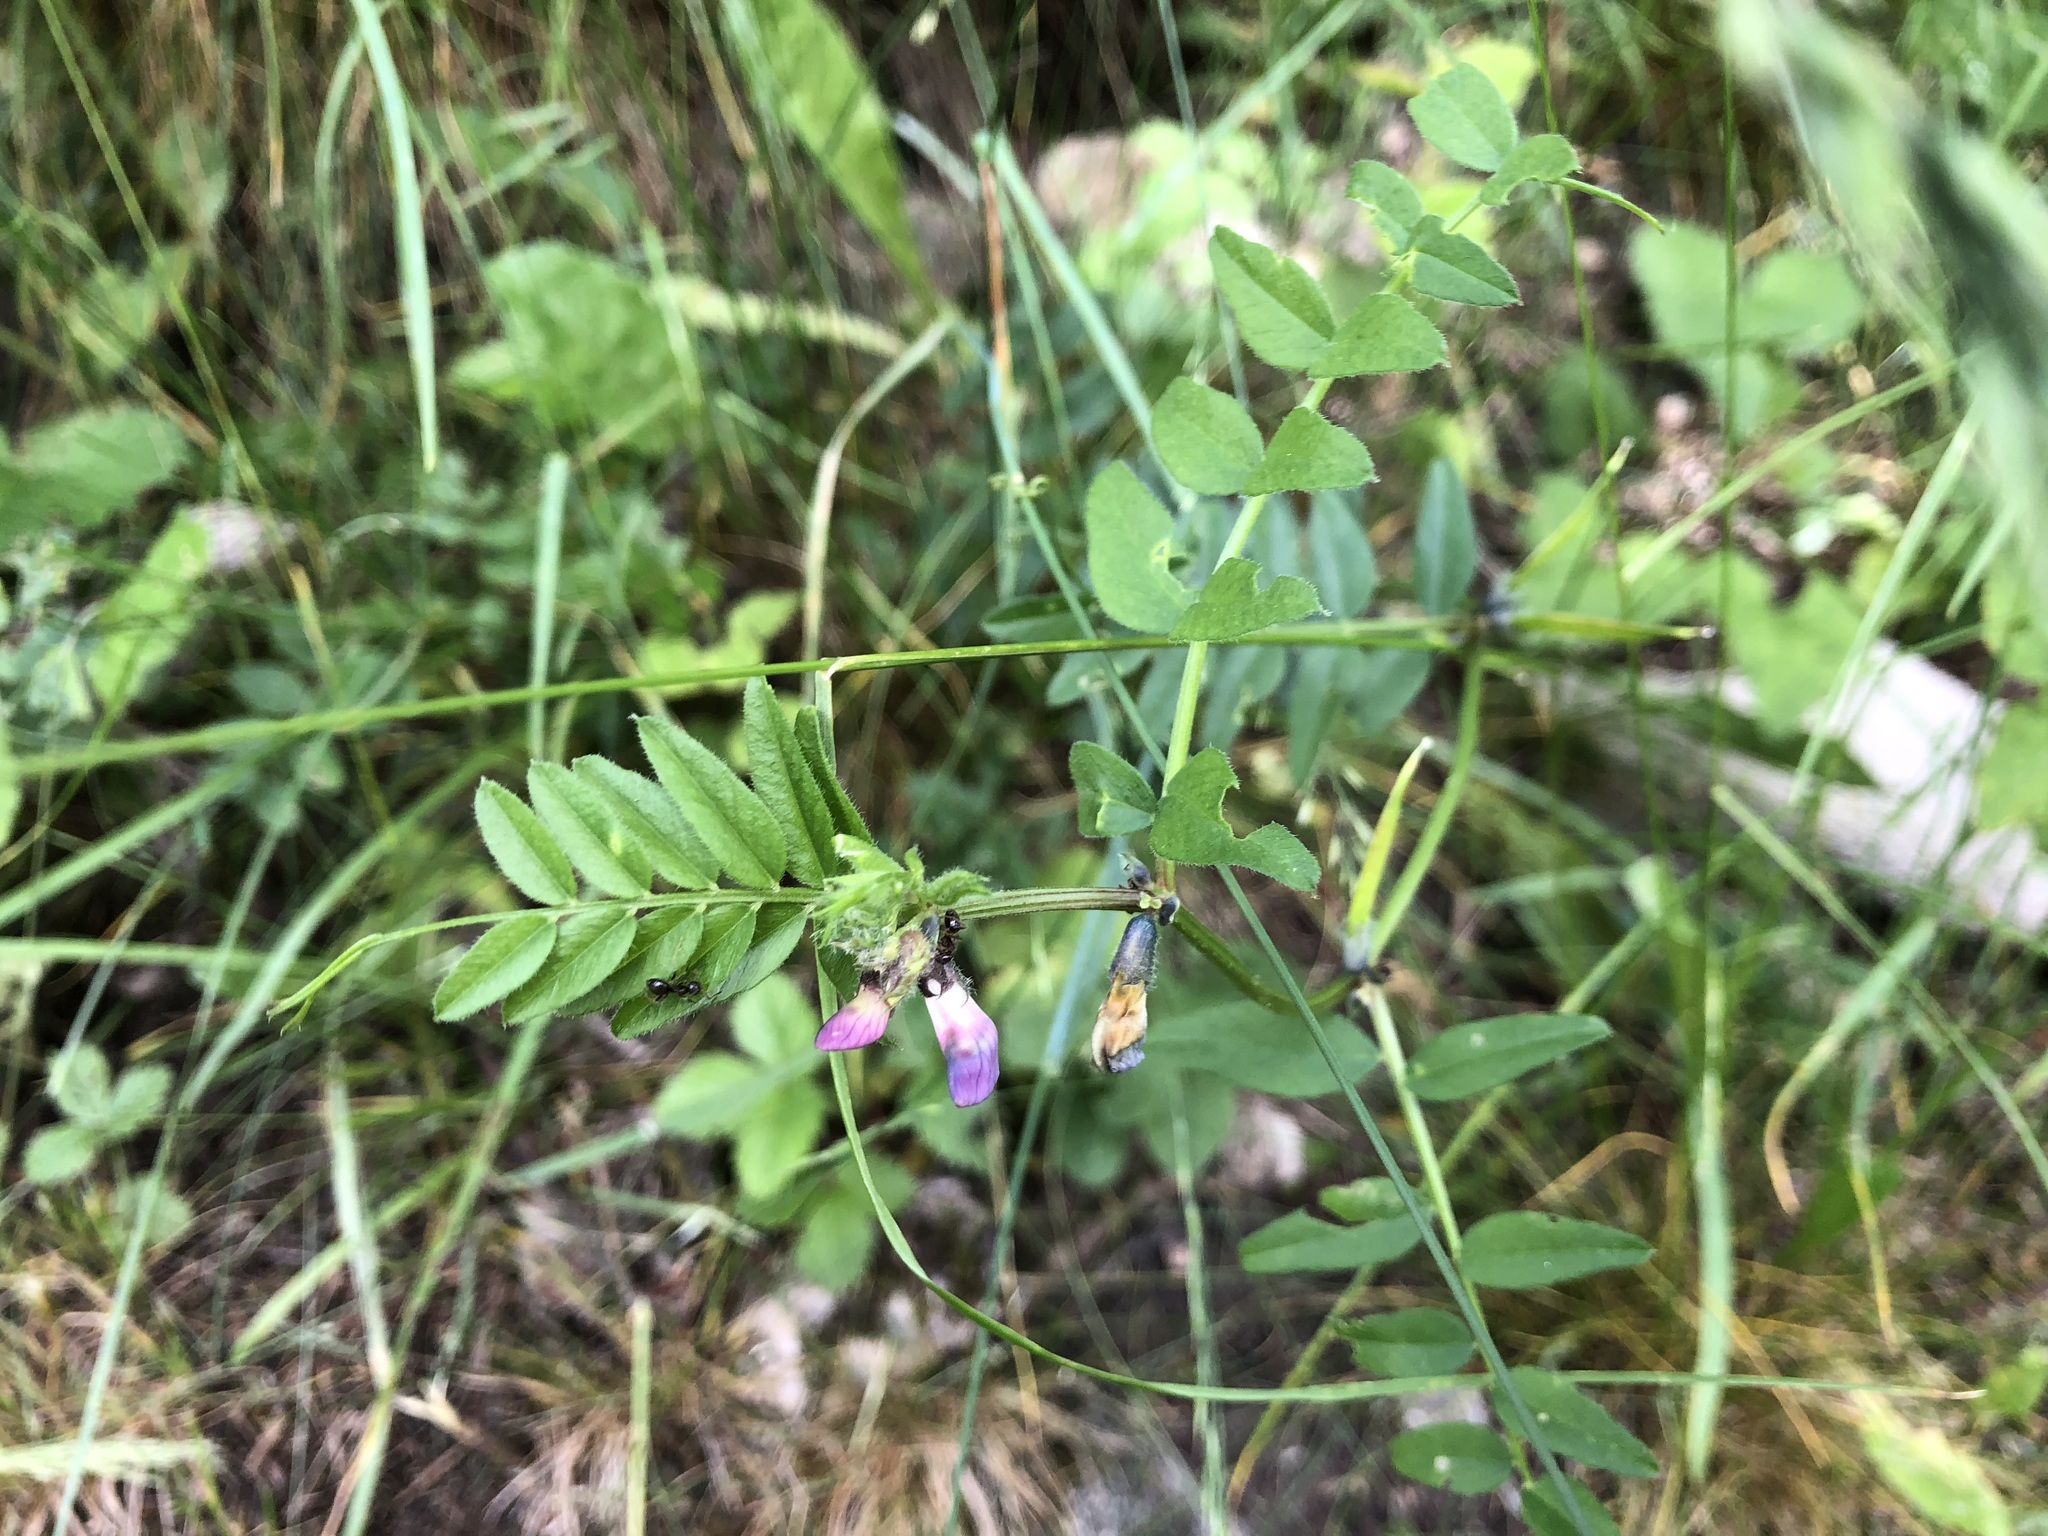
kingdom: Plantae
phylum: Tracheophyta
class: Magnoliopsida
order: Fabales
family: Fabaceae
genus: Vicia
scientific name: Vicia sepium
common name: Bush vetch
